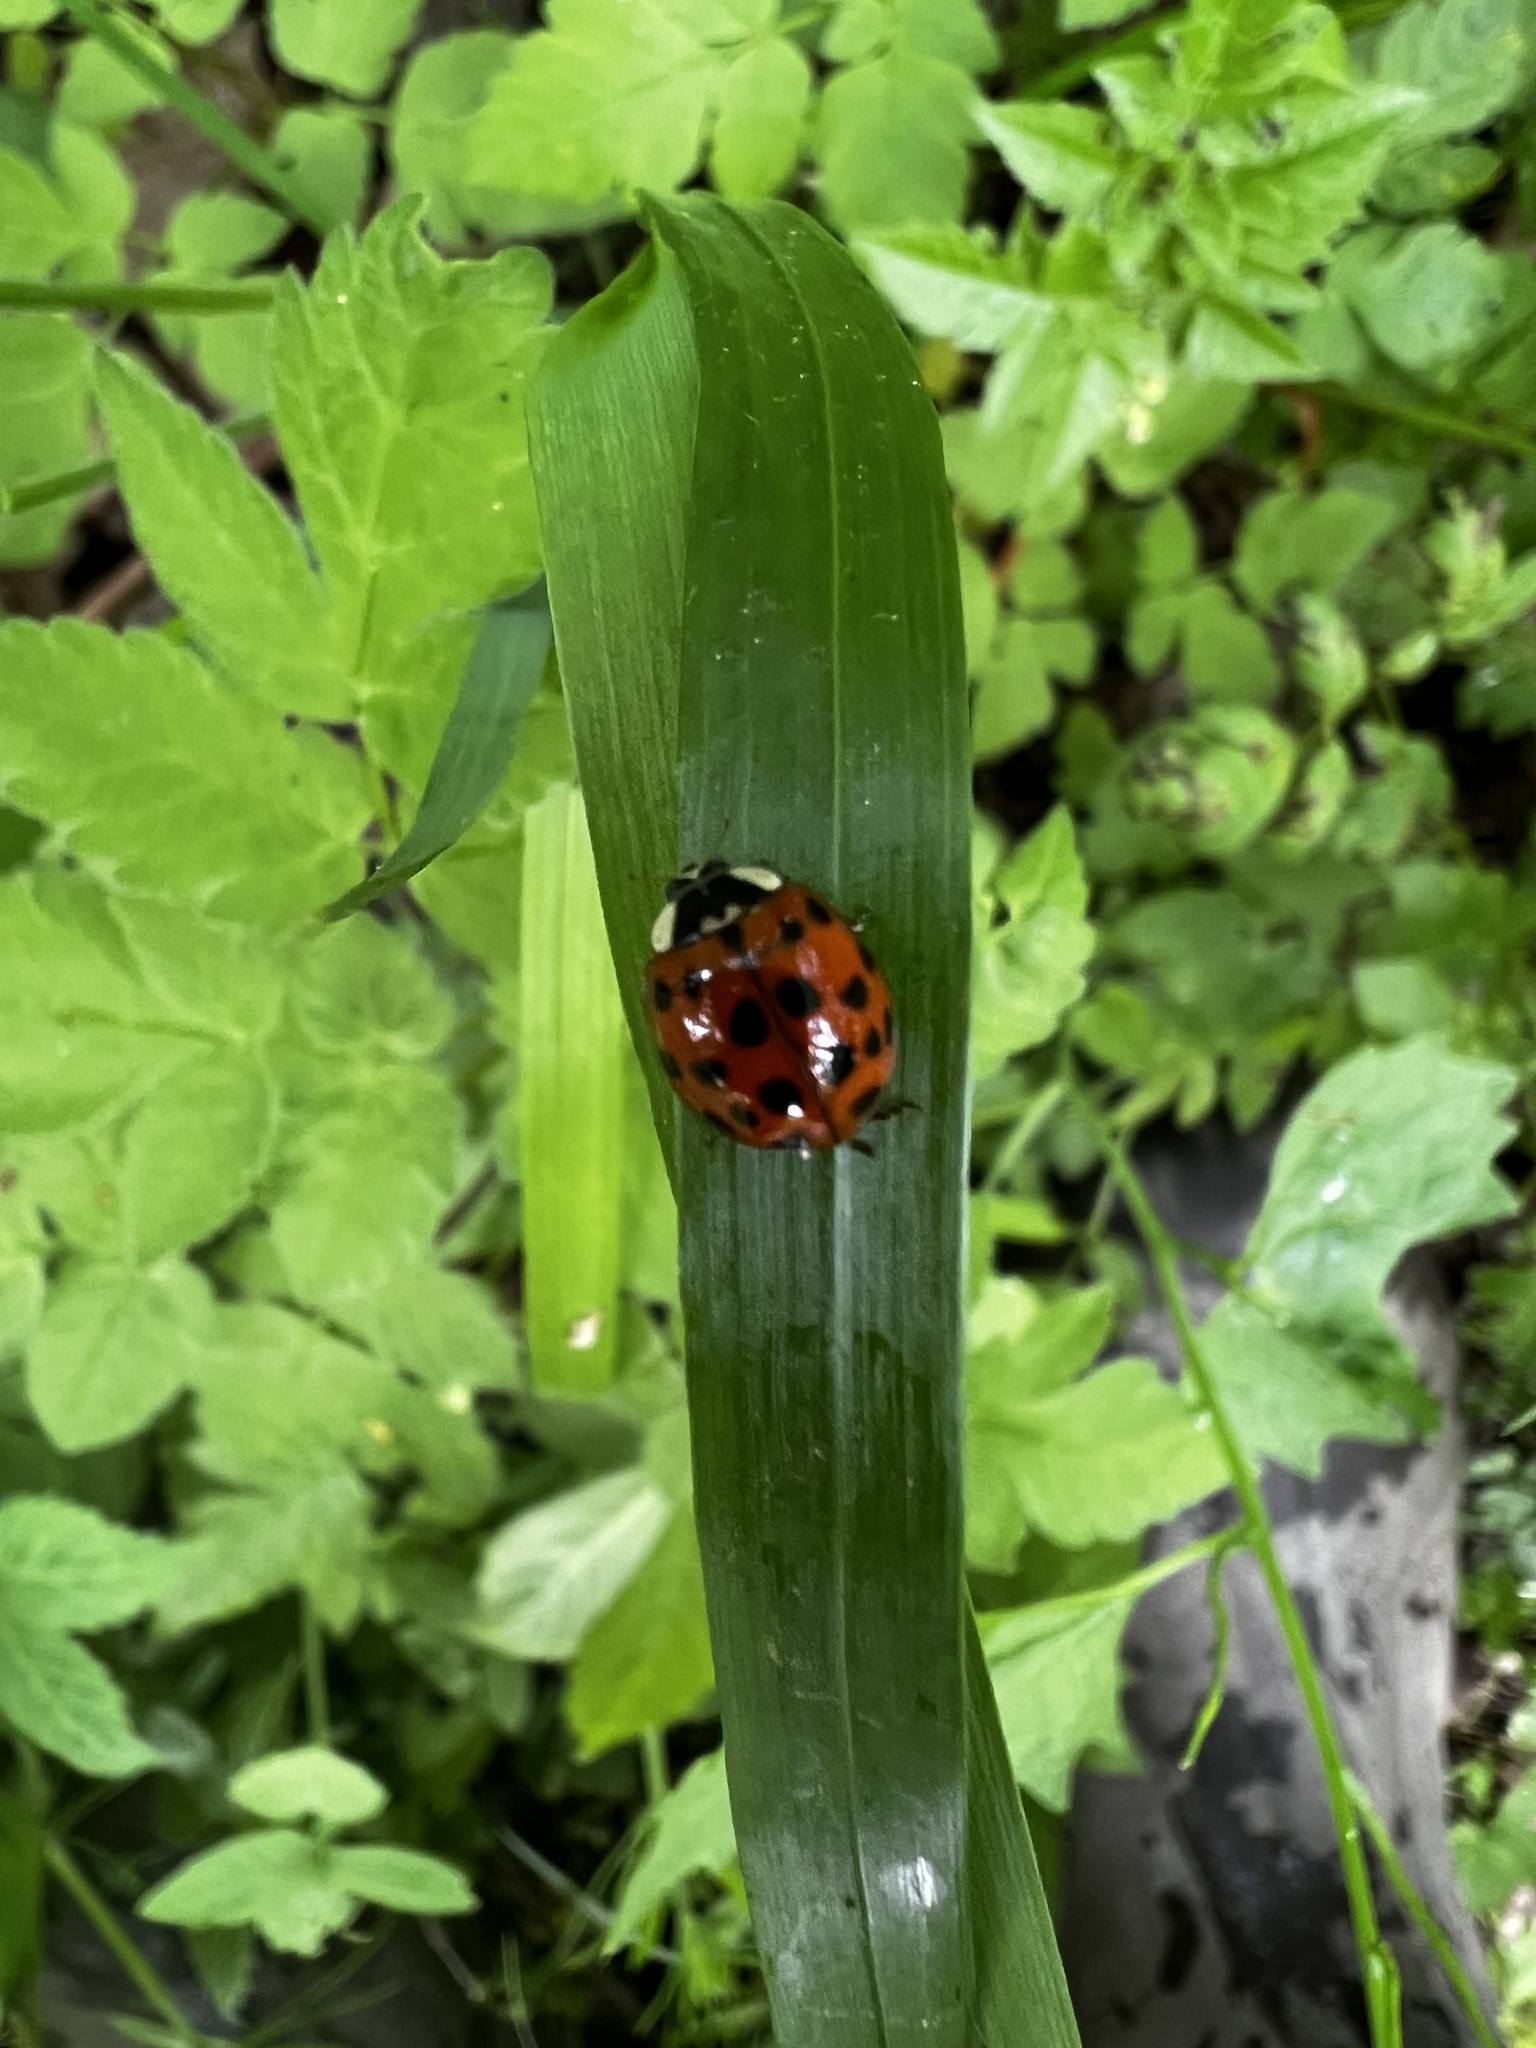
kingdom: Animalia
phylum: Arthropoda
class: Insecta
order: Coleoptera
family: Coccinellidae
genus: Harmonia
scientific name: Harmonia axyridis
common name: Harlequin ladybird
